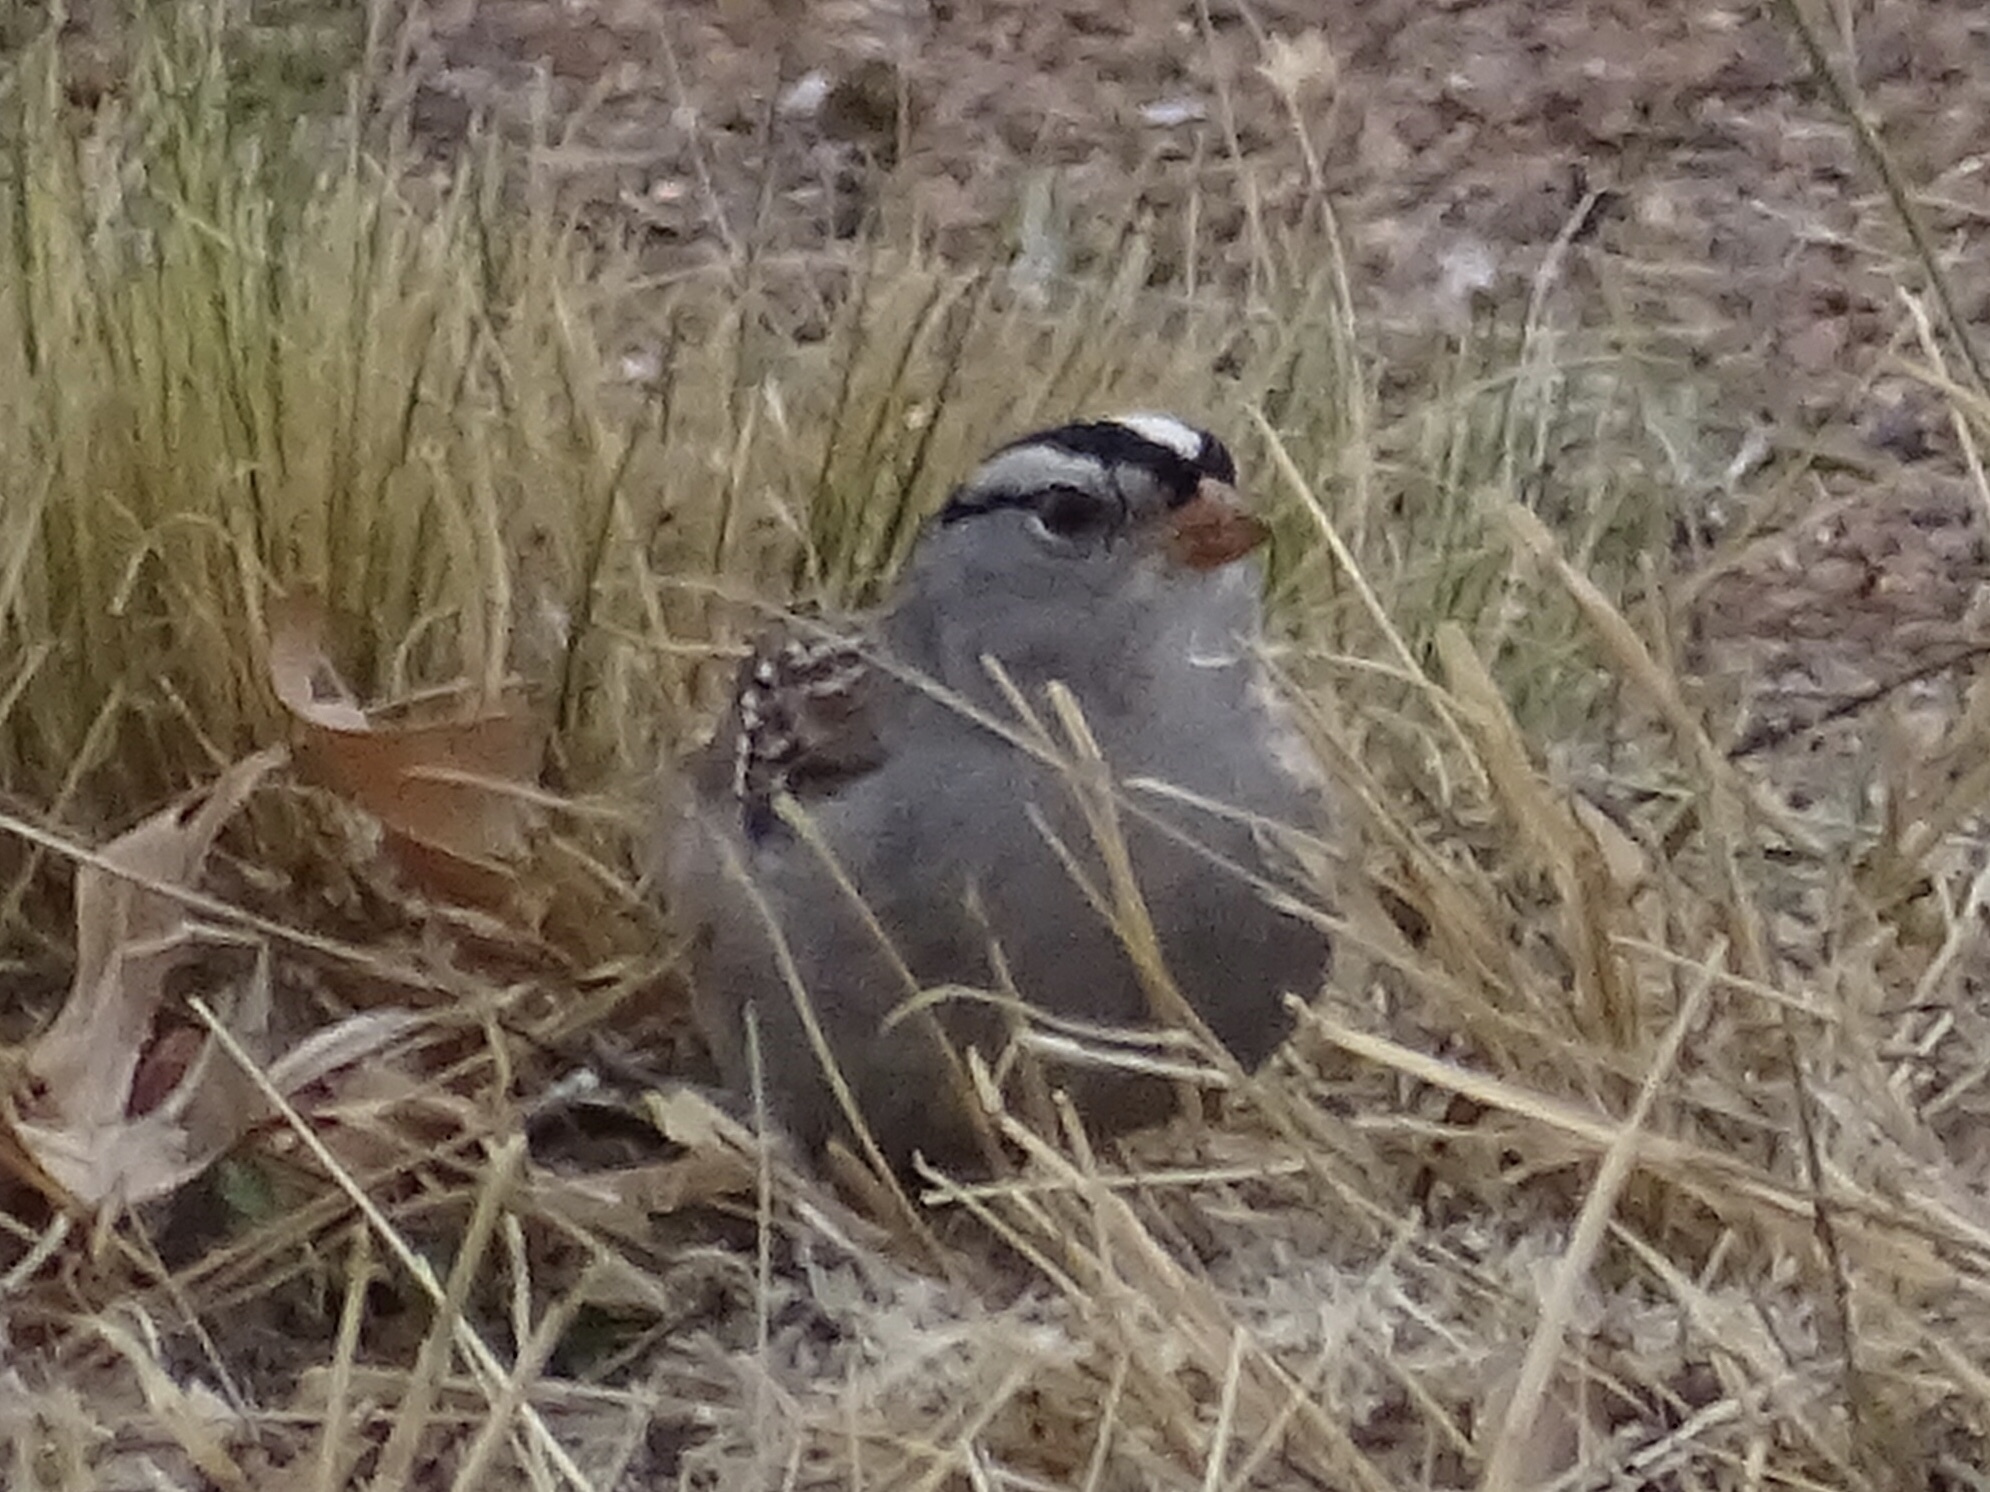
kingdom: Animalia
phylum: Chordata
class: Aves
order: Passeriformes
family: Passerellidae
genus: Zonotrichia
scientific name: Zonotrichia leucophrys
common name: White-crowned sparrow
